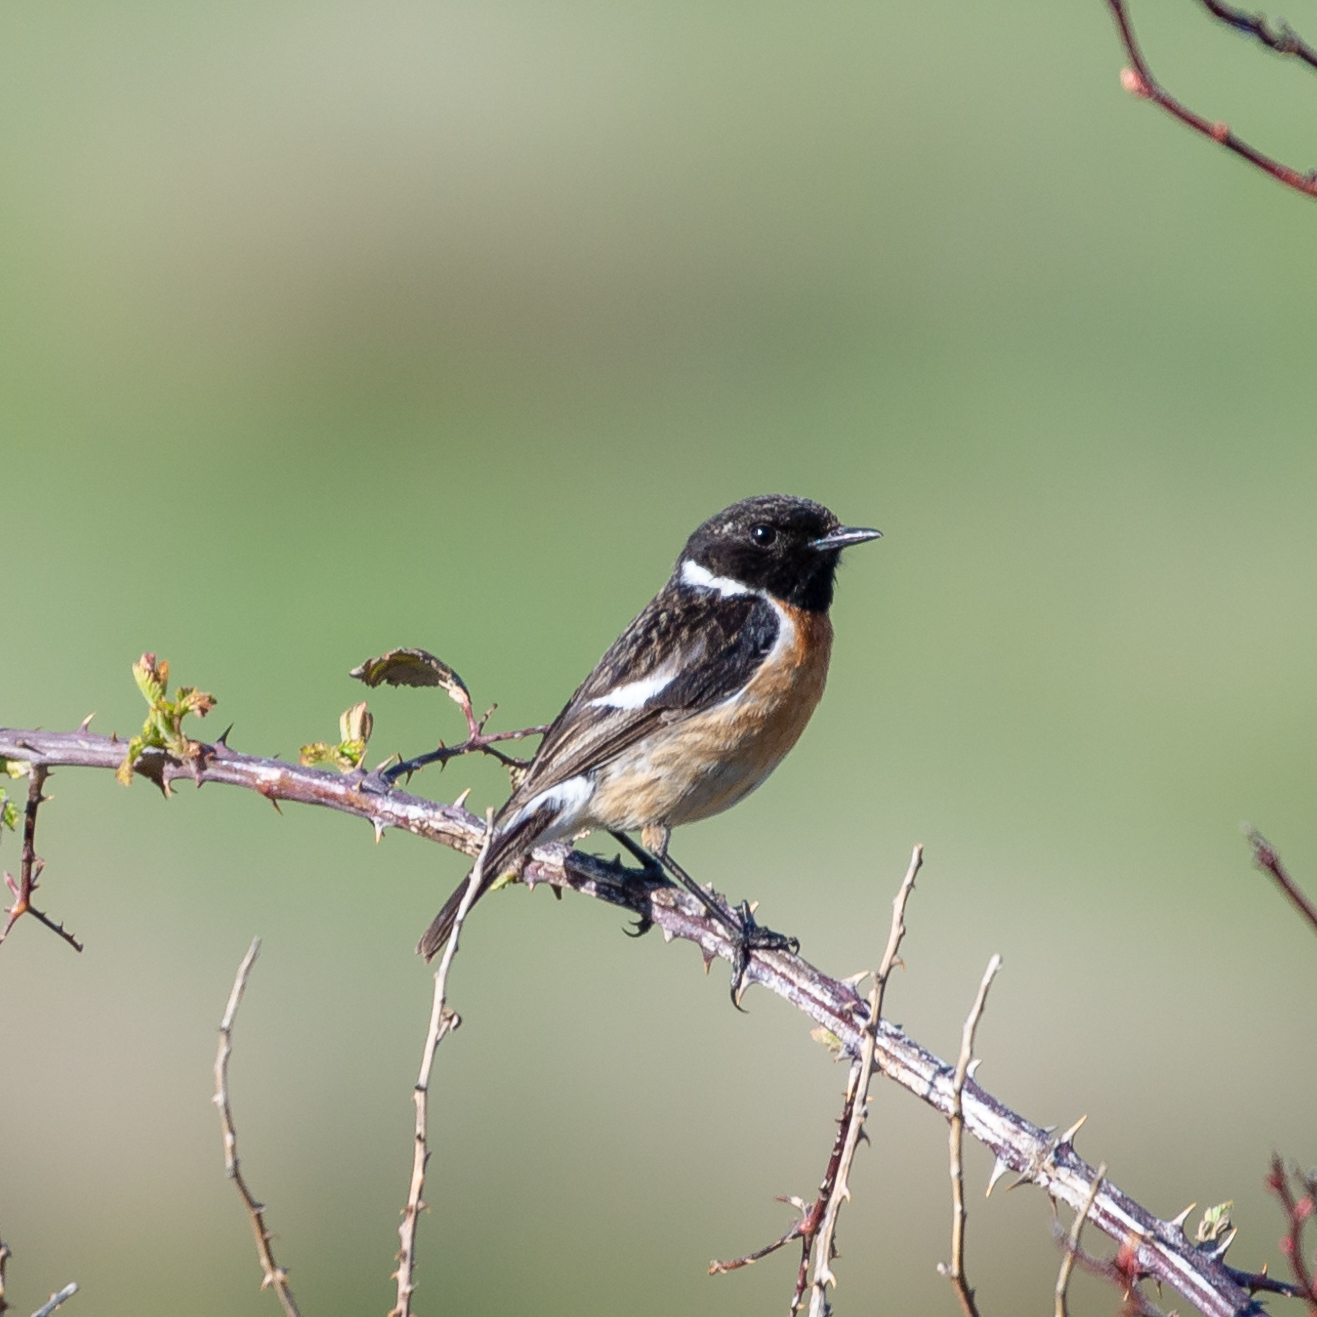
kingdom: Animalia
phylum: Chordata
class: Aves
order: Passeriformes
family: Muscicapidae
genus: Saxicola
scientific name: Saxicola rubicola
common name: European stonechat
